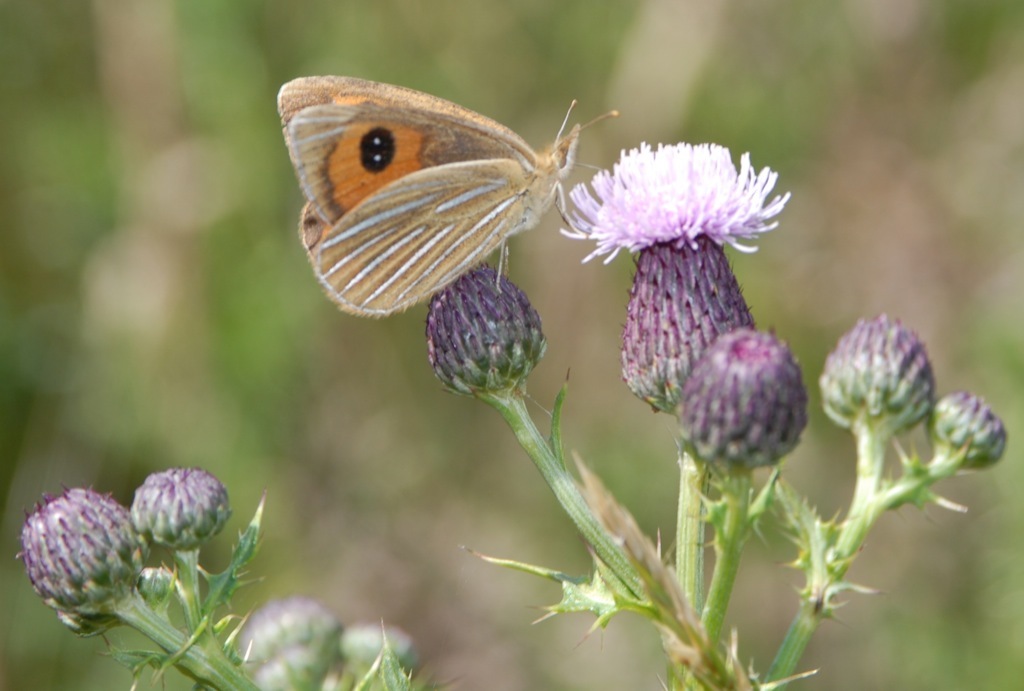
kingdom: Animalia
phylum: Arthropoda
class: Insecta
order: Lepidoptera
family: Nymphalidae
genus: Argyrophenga
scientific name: Argyrophenga antipodum
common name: Common tussock butterfly
